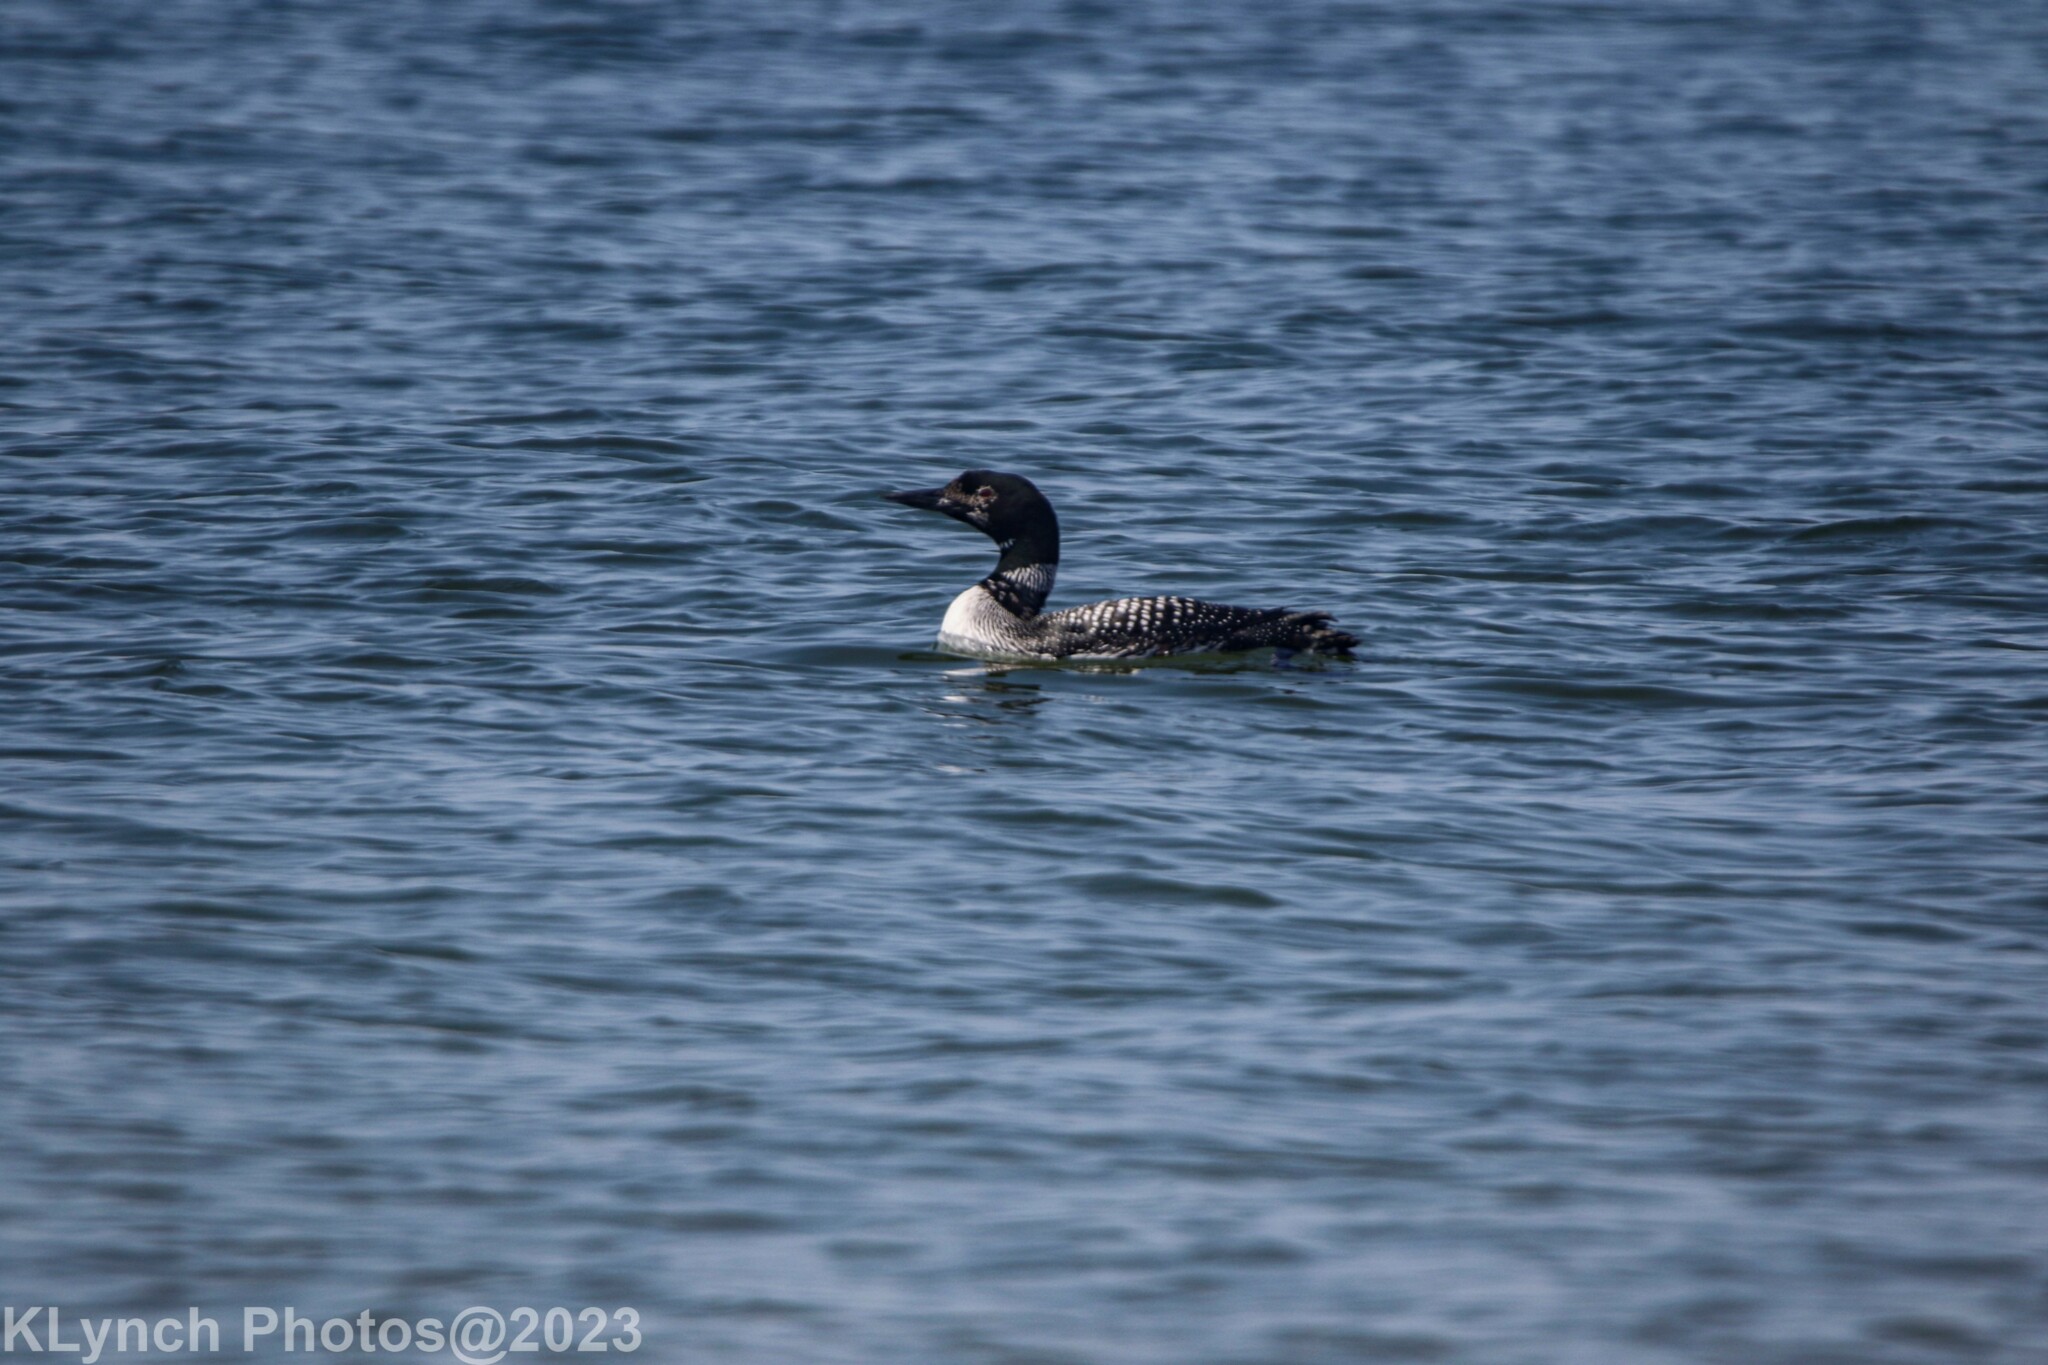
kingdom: Animalia
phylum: Chordata
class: Aves
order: Gaviiformes
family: Gaviidae
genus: Gavia
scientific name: Gavia immer
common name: Common loon
